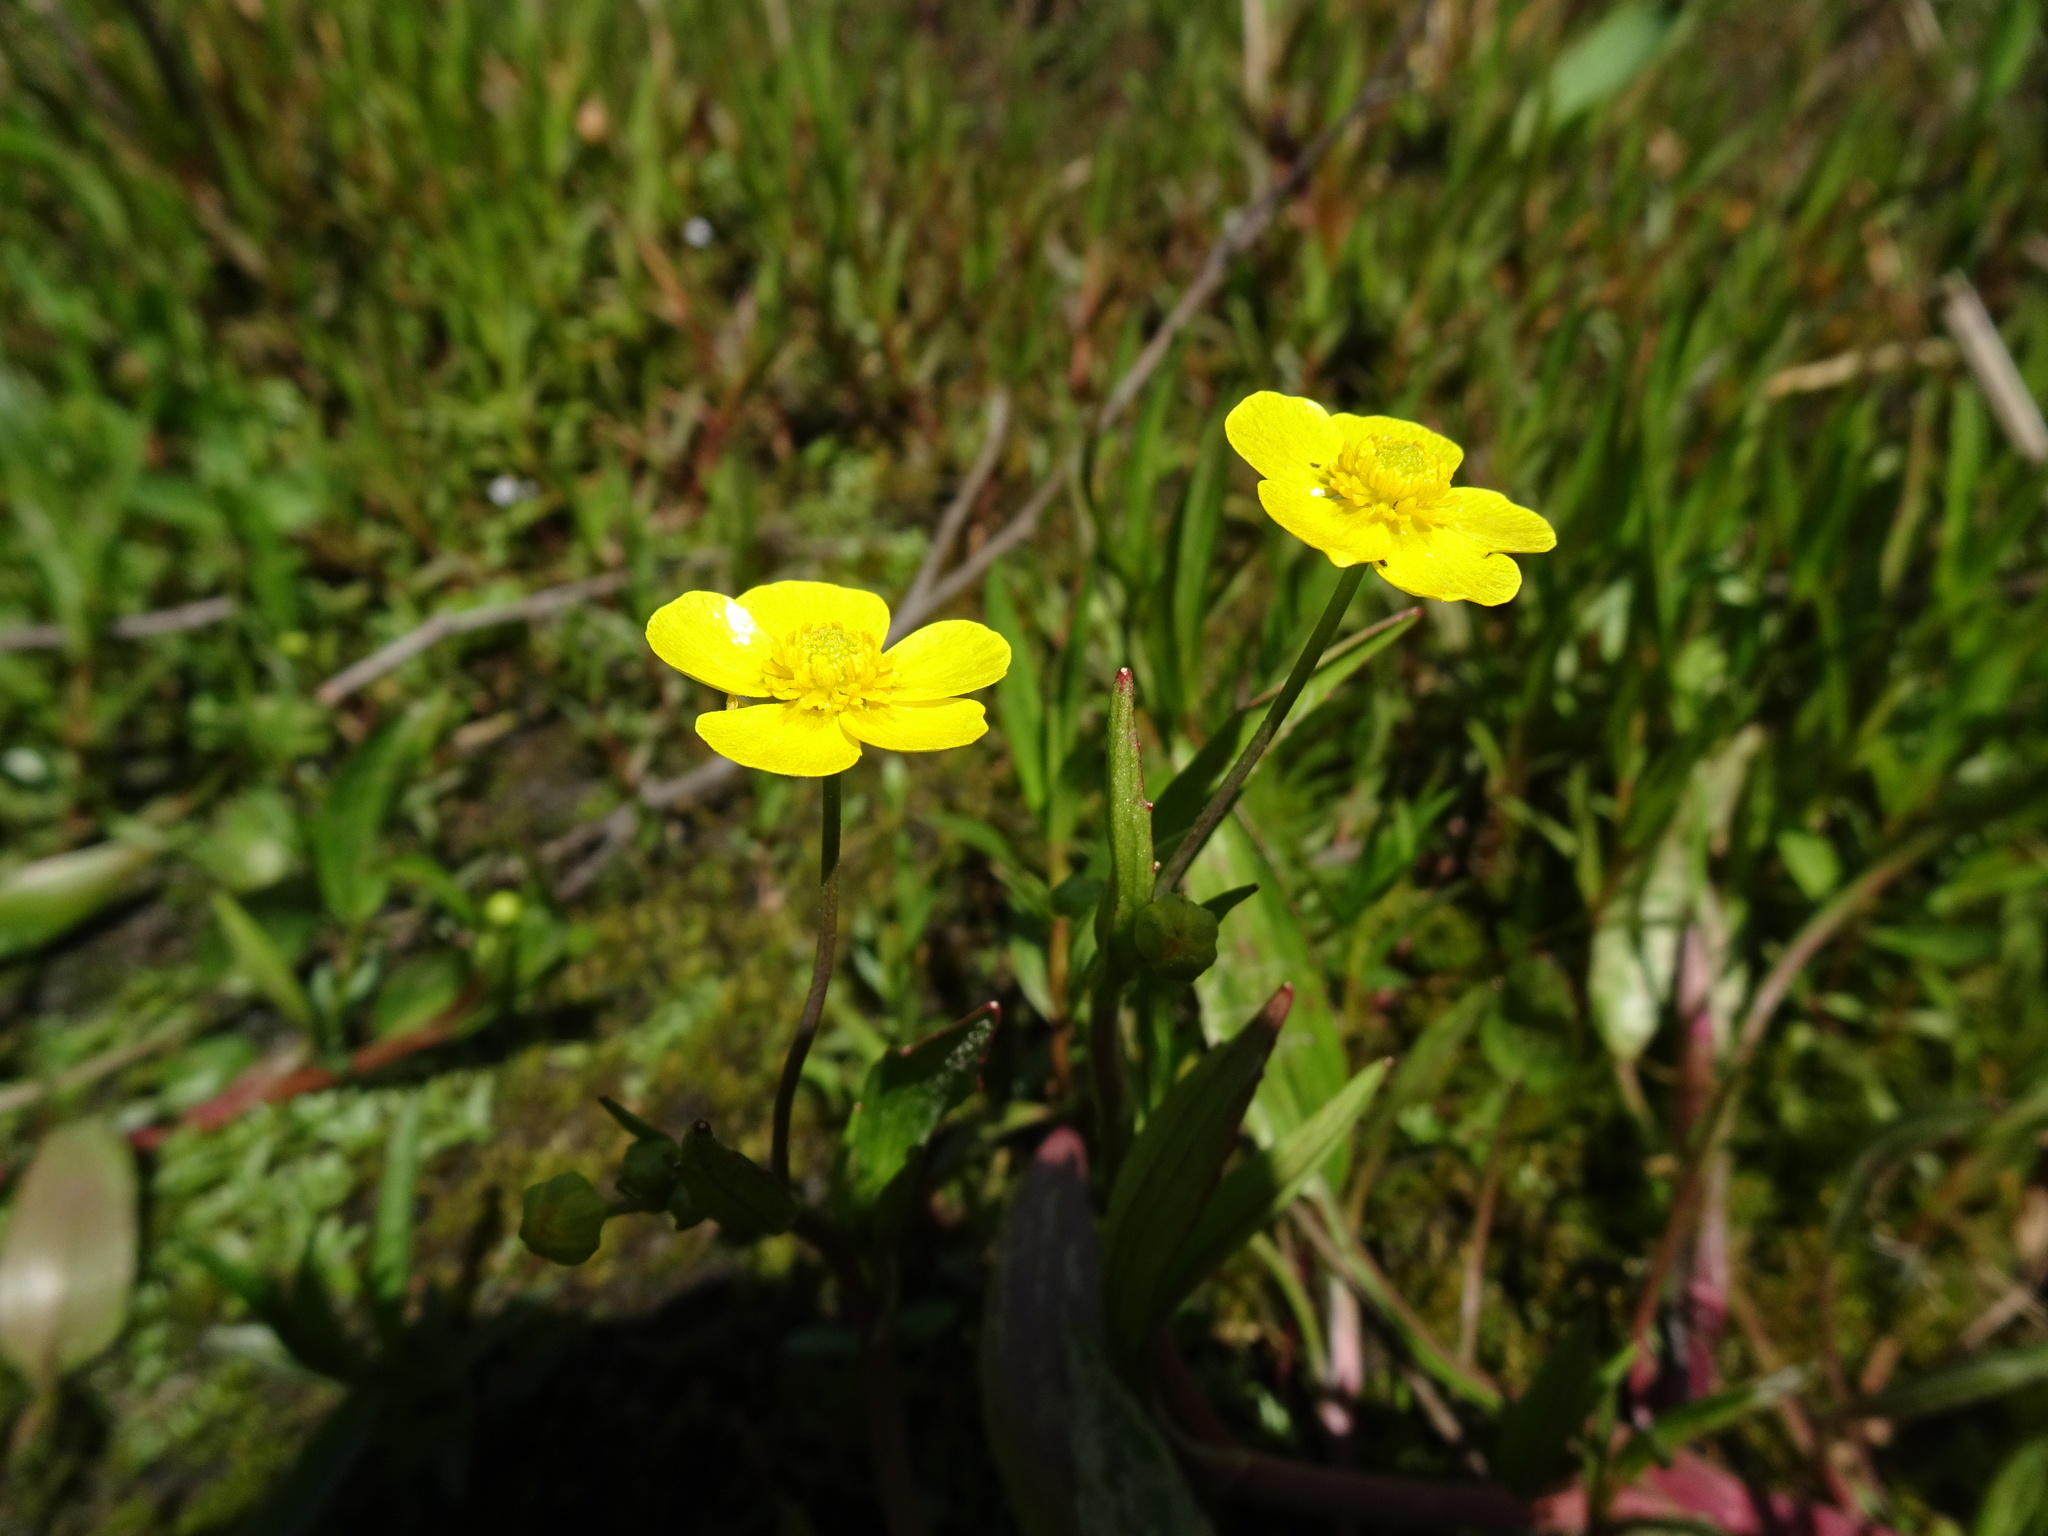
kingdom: Plantae
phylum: Tracheophyta
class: Magnoliopsida
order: Ranunculales
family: Ranunculaceae
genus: Ranunculus
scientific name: Ranunculus flammula
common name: Lesser spearwort
